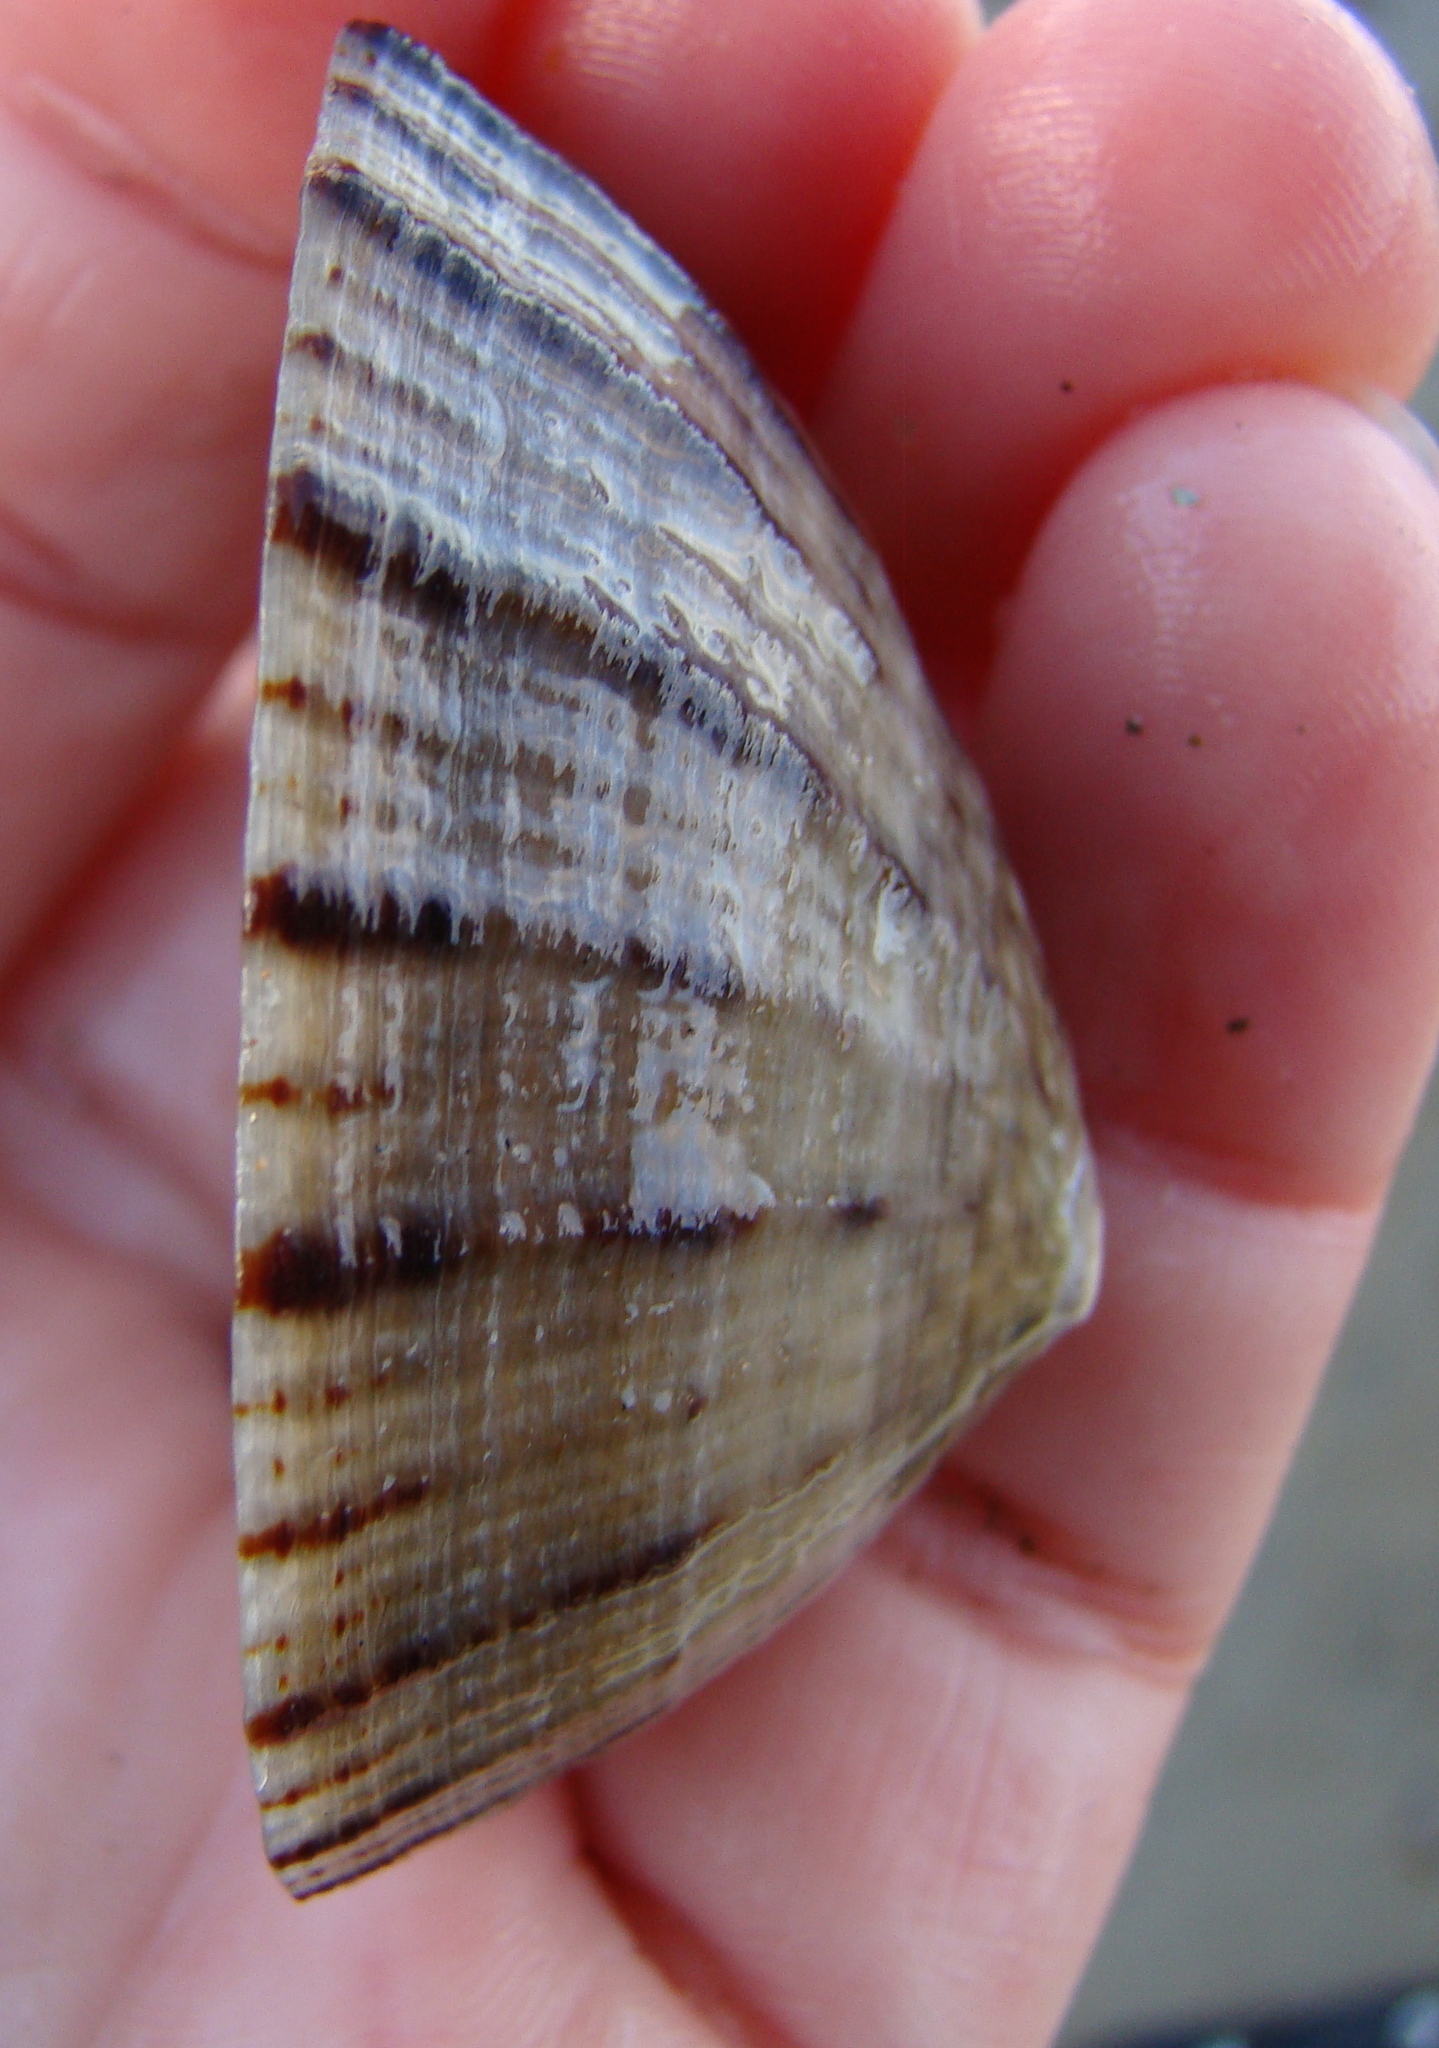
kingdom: Animalia
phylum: Mollusca
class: Gastropoda
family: Nacellidae
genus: Cellana
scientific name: Cellana radians
